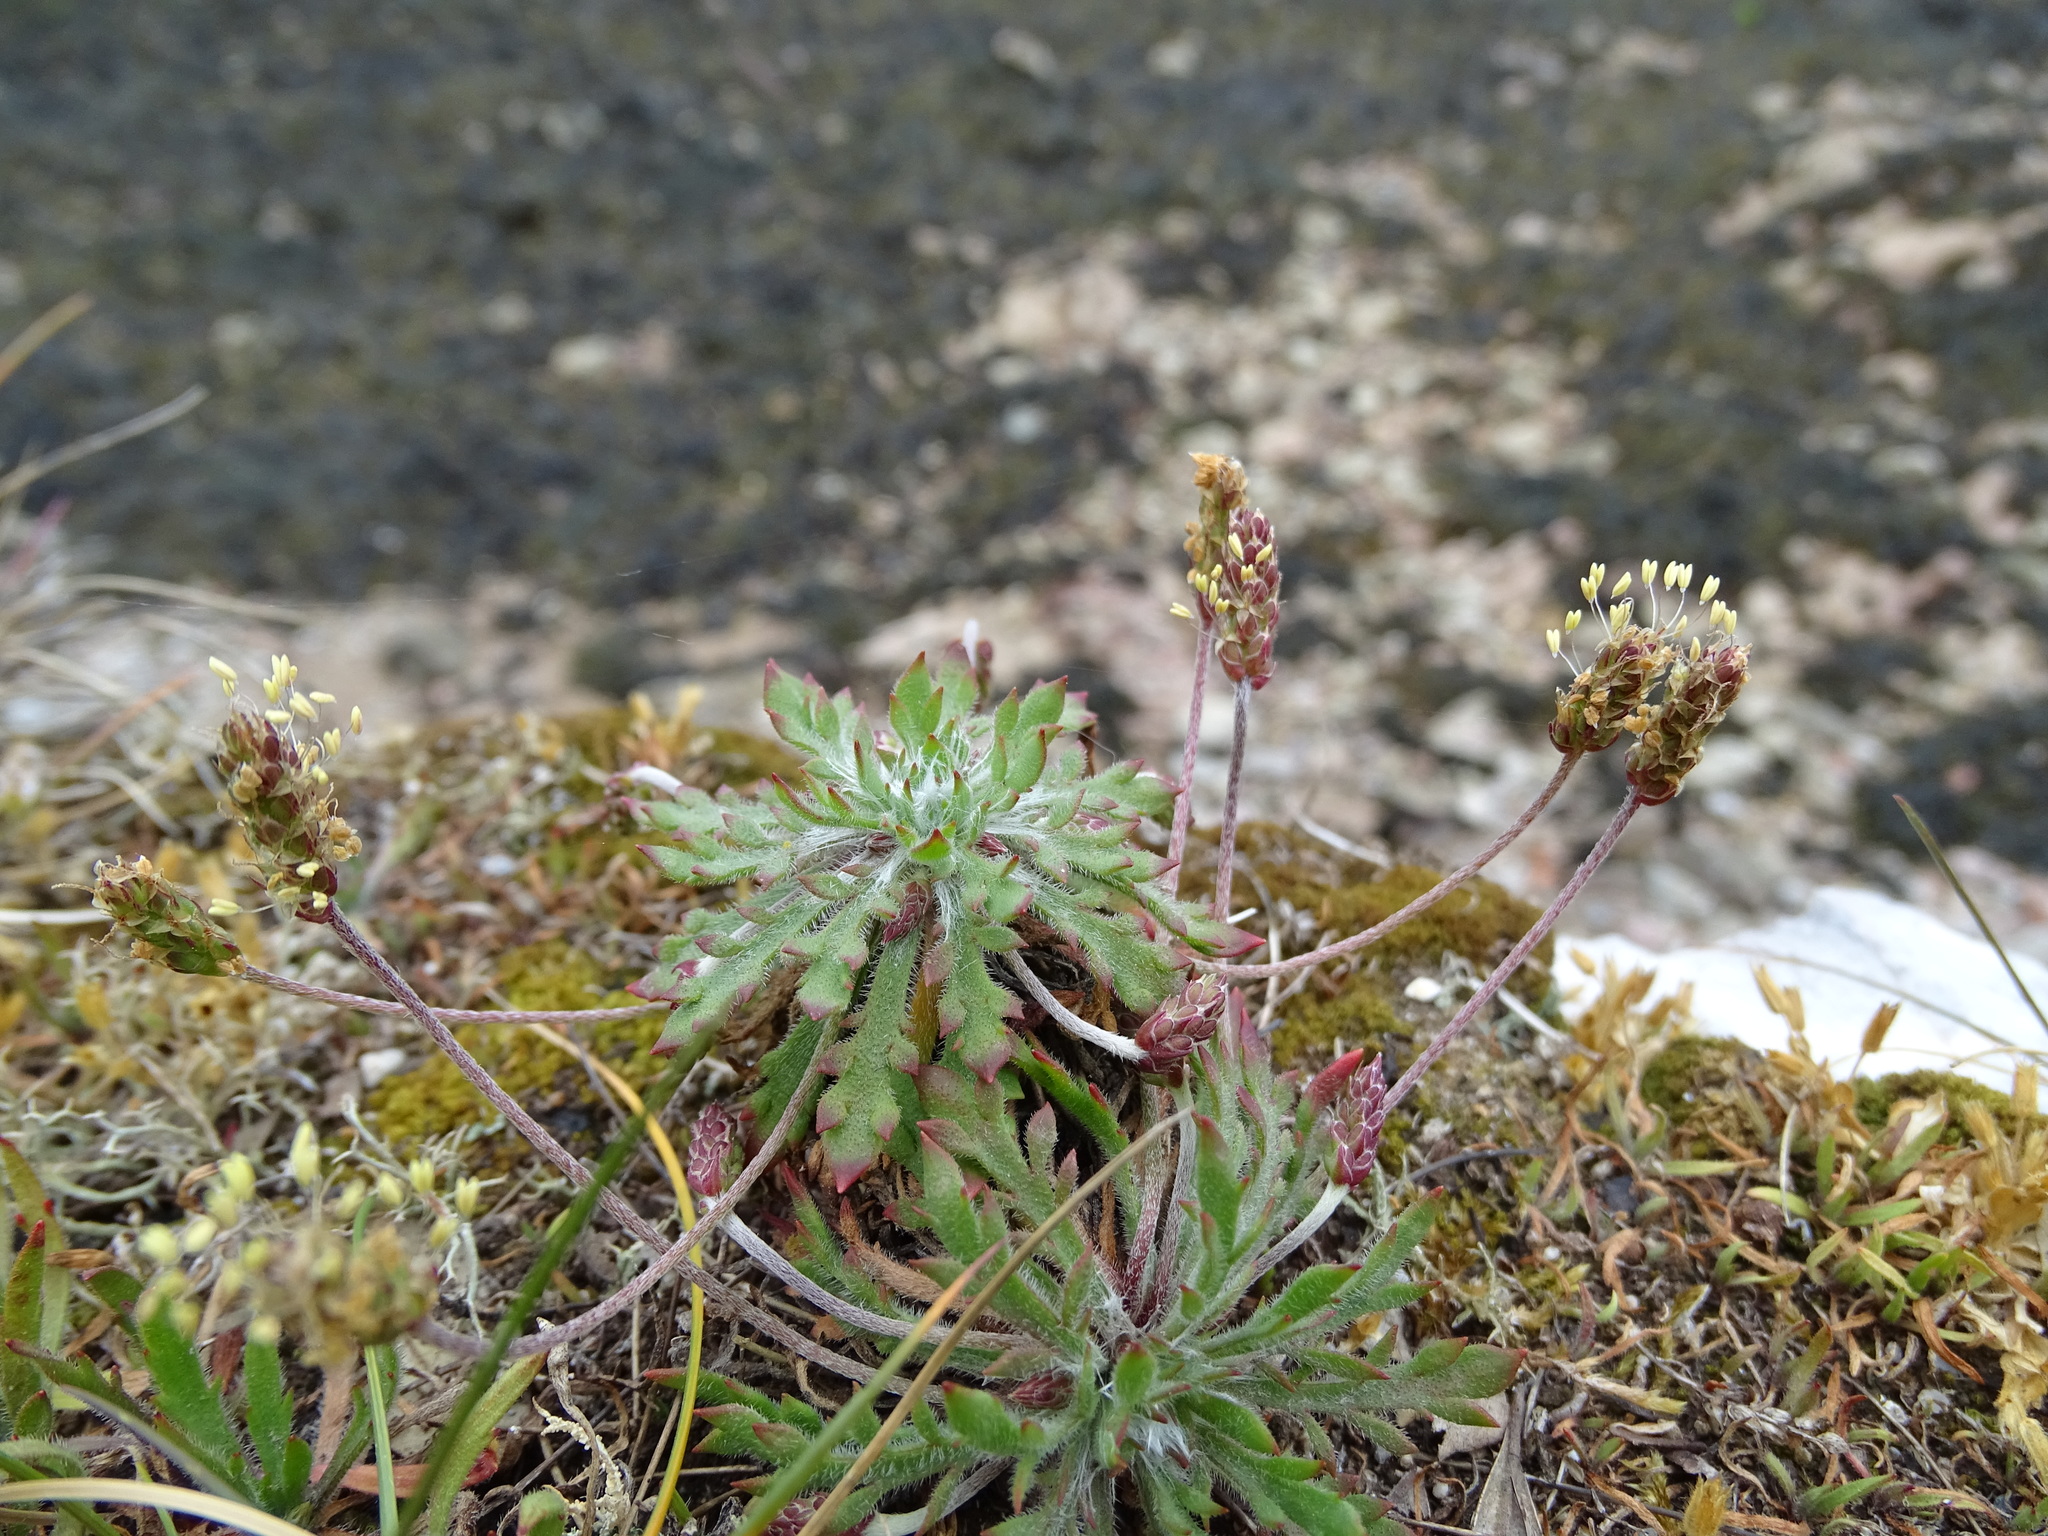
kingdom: Plantae
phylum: Tracheophyta
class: Magnoliopsida
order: Lamiales
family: Plantaginaceae
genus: Plantago
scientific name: Plantago coronopus
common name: Buck's-horn plantain
